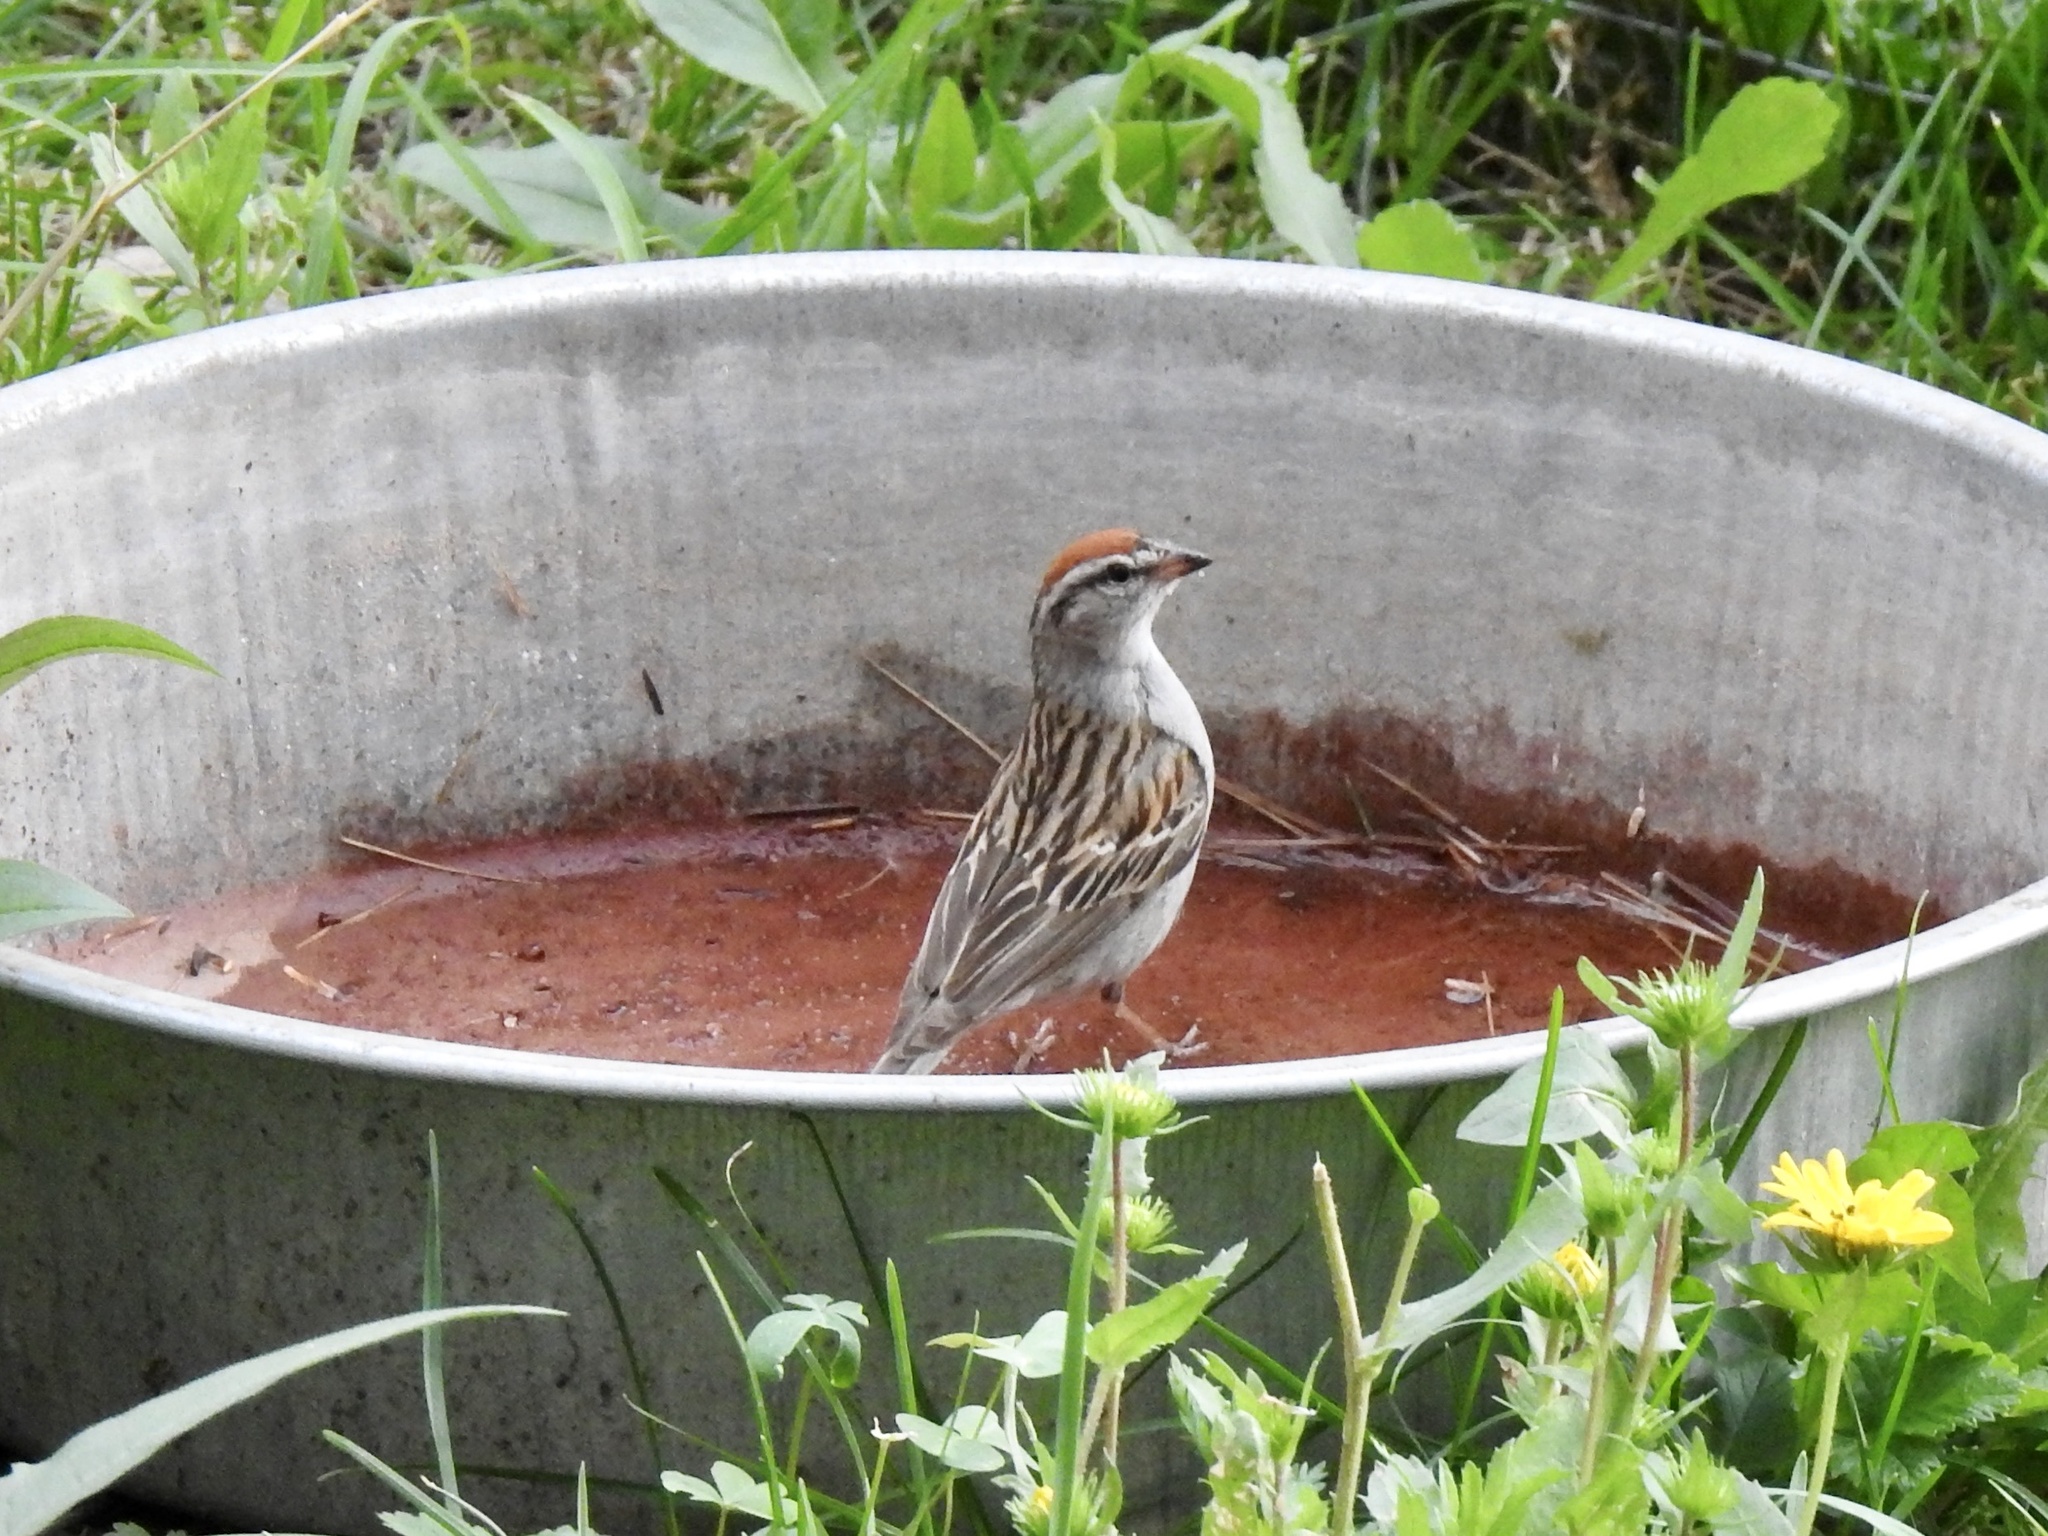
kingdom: Animalia
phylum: Chordata
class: Aves
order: Passeriformes
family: Passerellidae
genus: Spizella
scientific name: Spizella passerina
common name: Chipping sparrow
